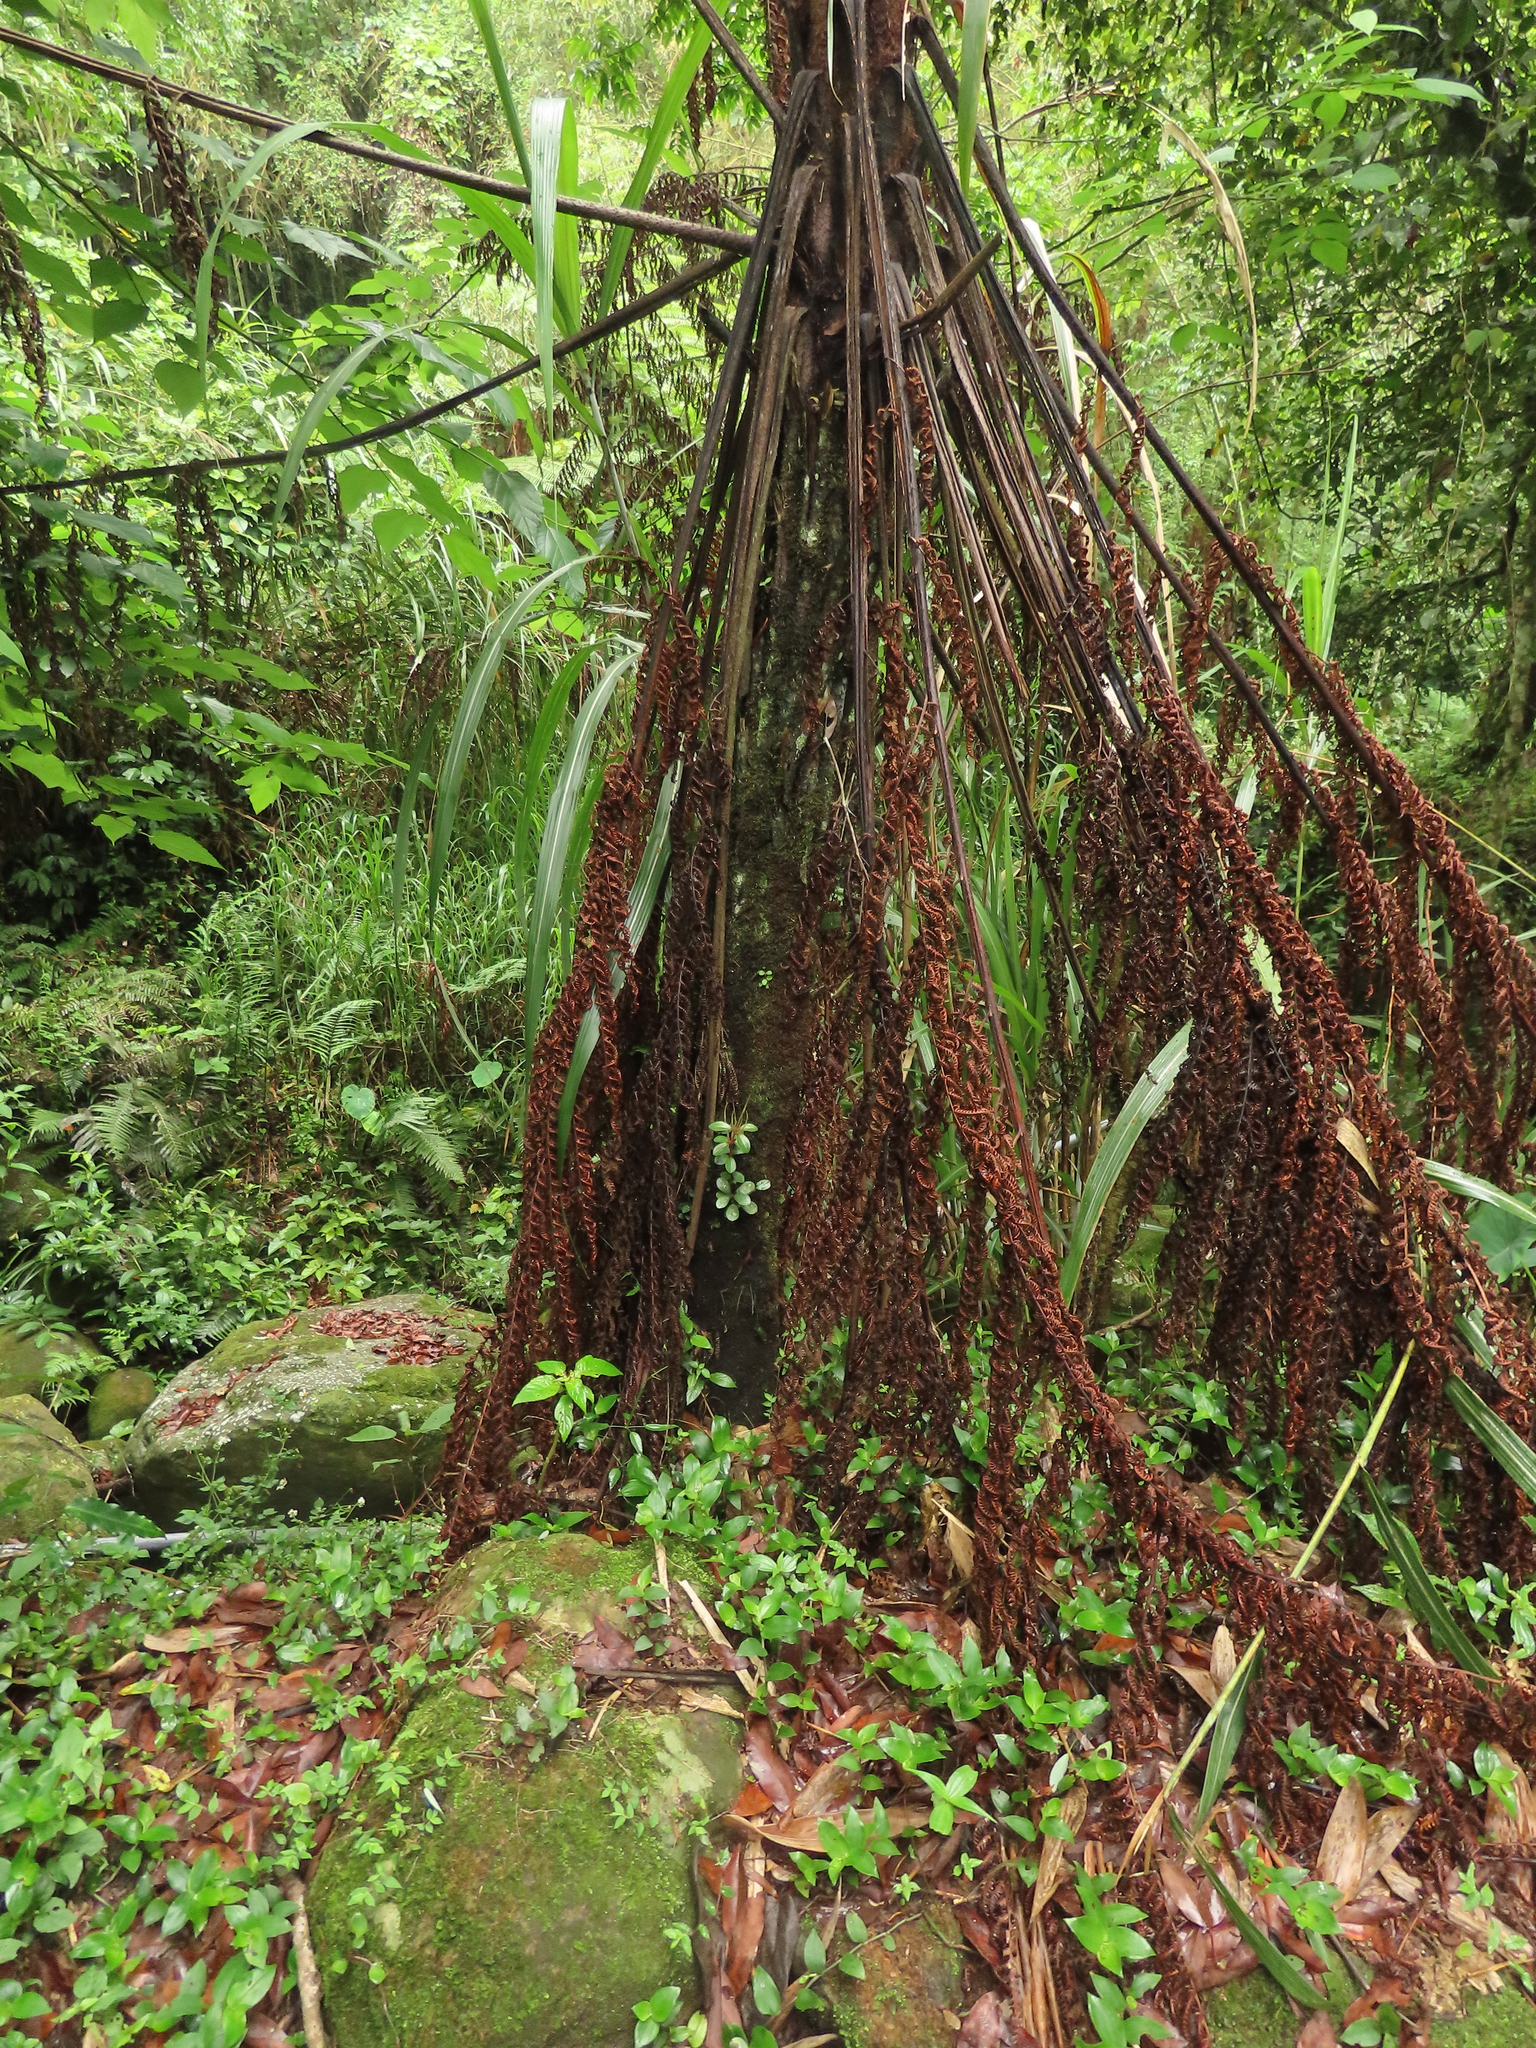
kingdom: Plantae
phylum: Tracheophyta
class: Magnoliopsida
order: Piperales
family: Piperaceae
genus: Peperomia
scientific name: Peperomia leptostachya
